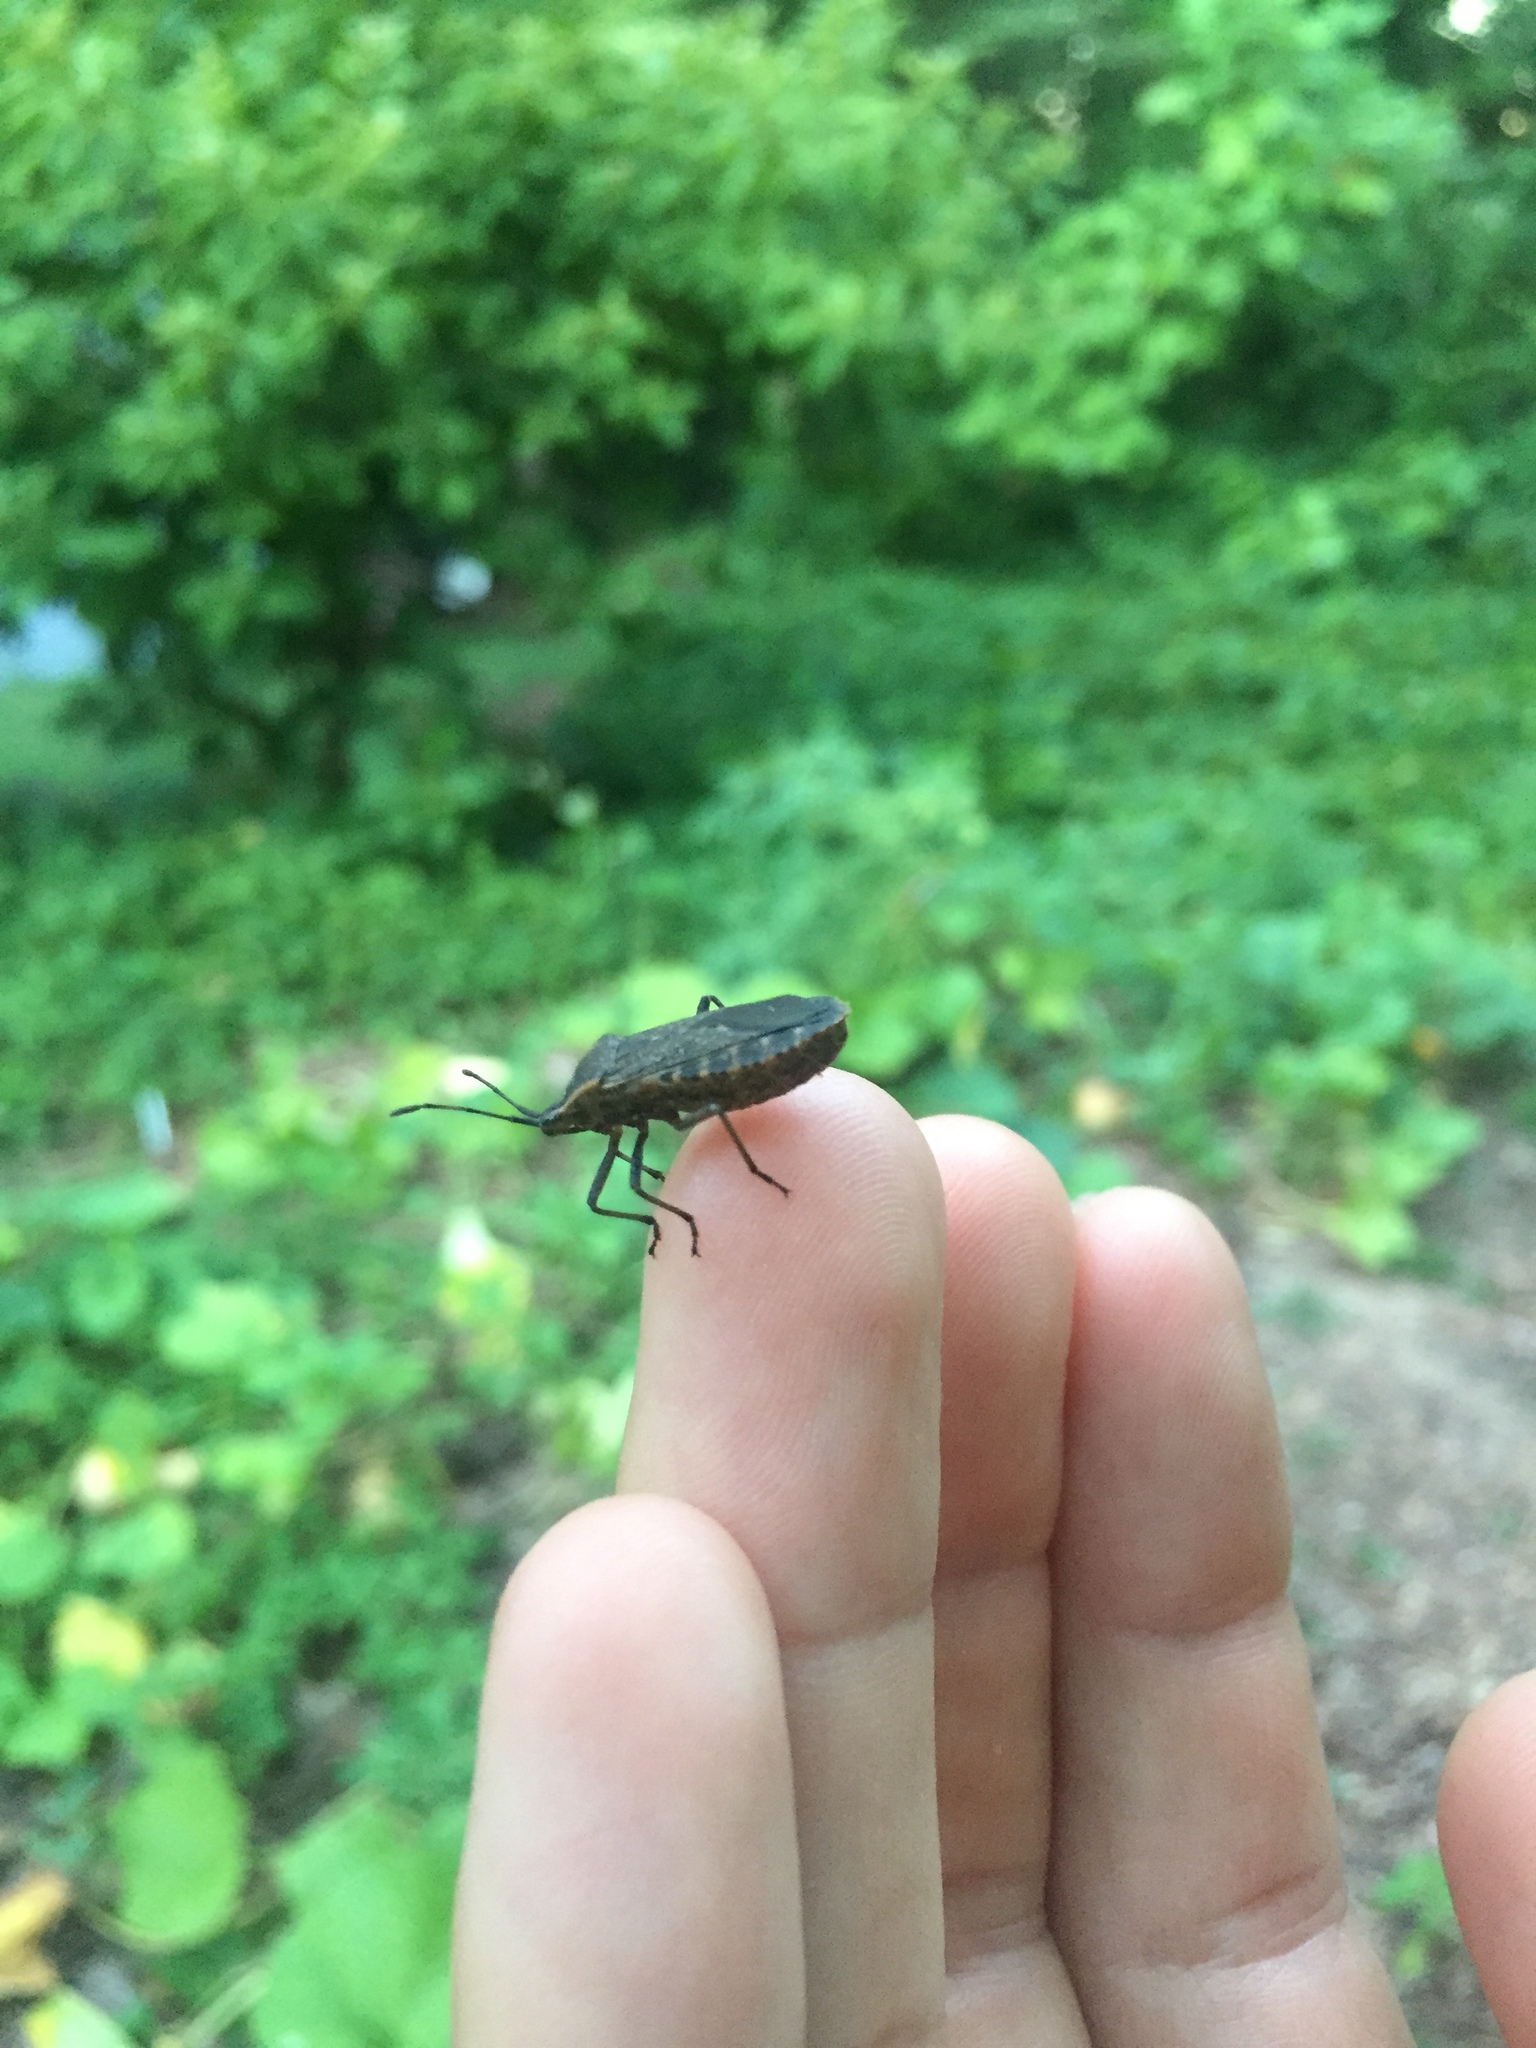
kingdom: Animalia
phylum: Arthropoda
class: Insecta
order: Hemiptera
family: Coreidae
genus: Anasa
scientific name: Anasa tristis
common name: Squash bug
